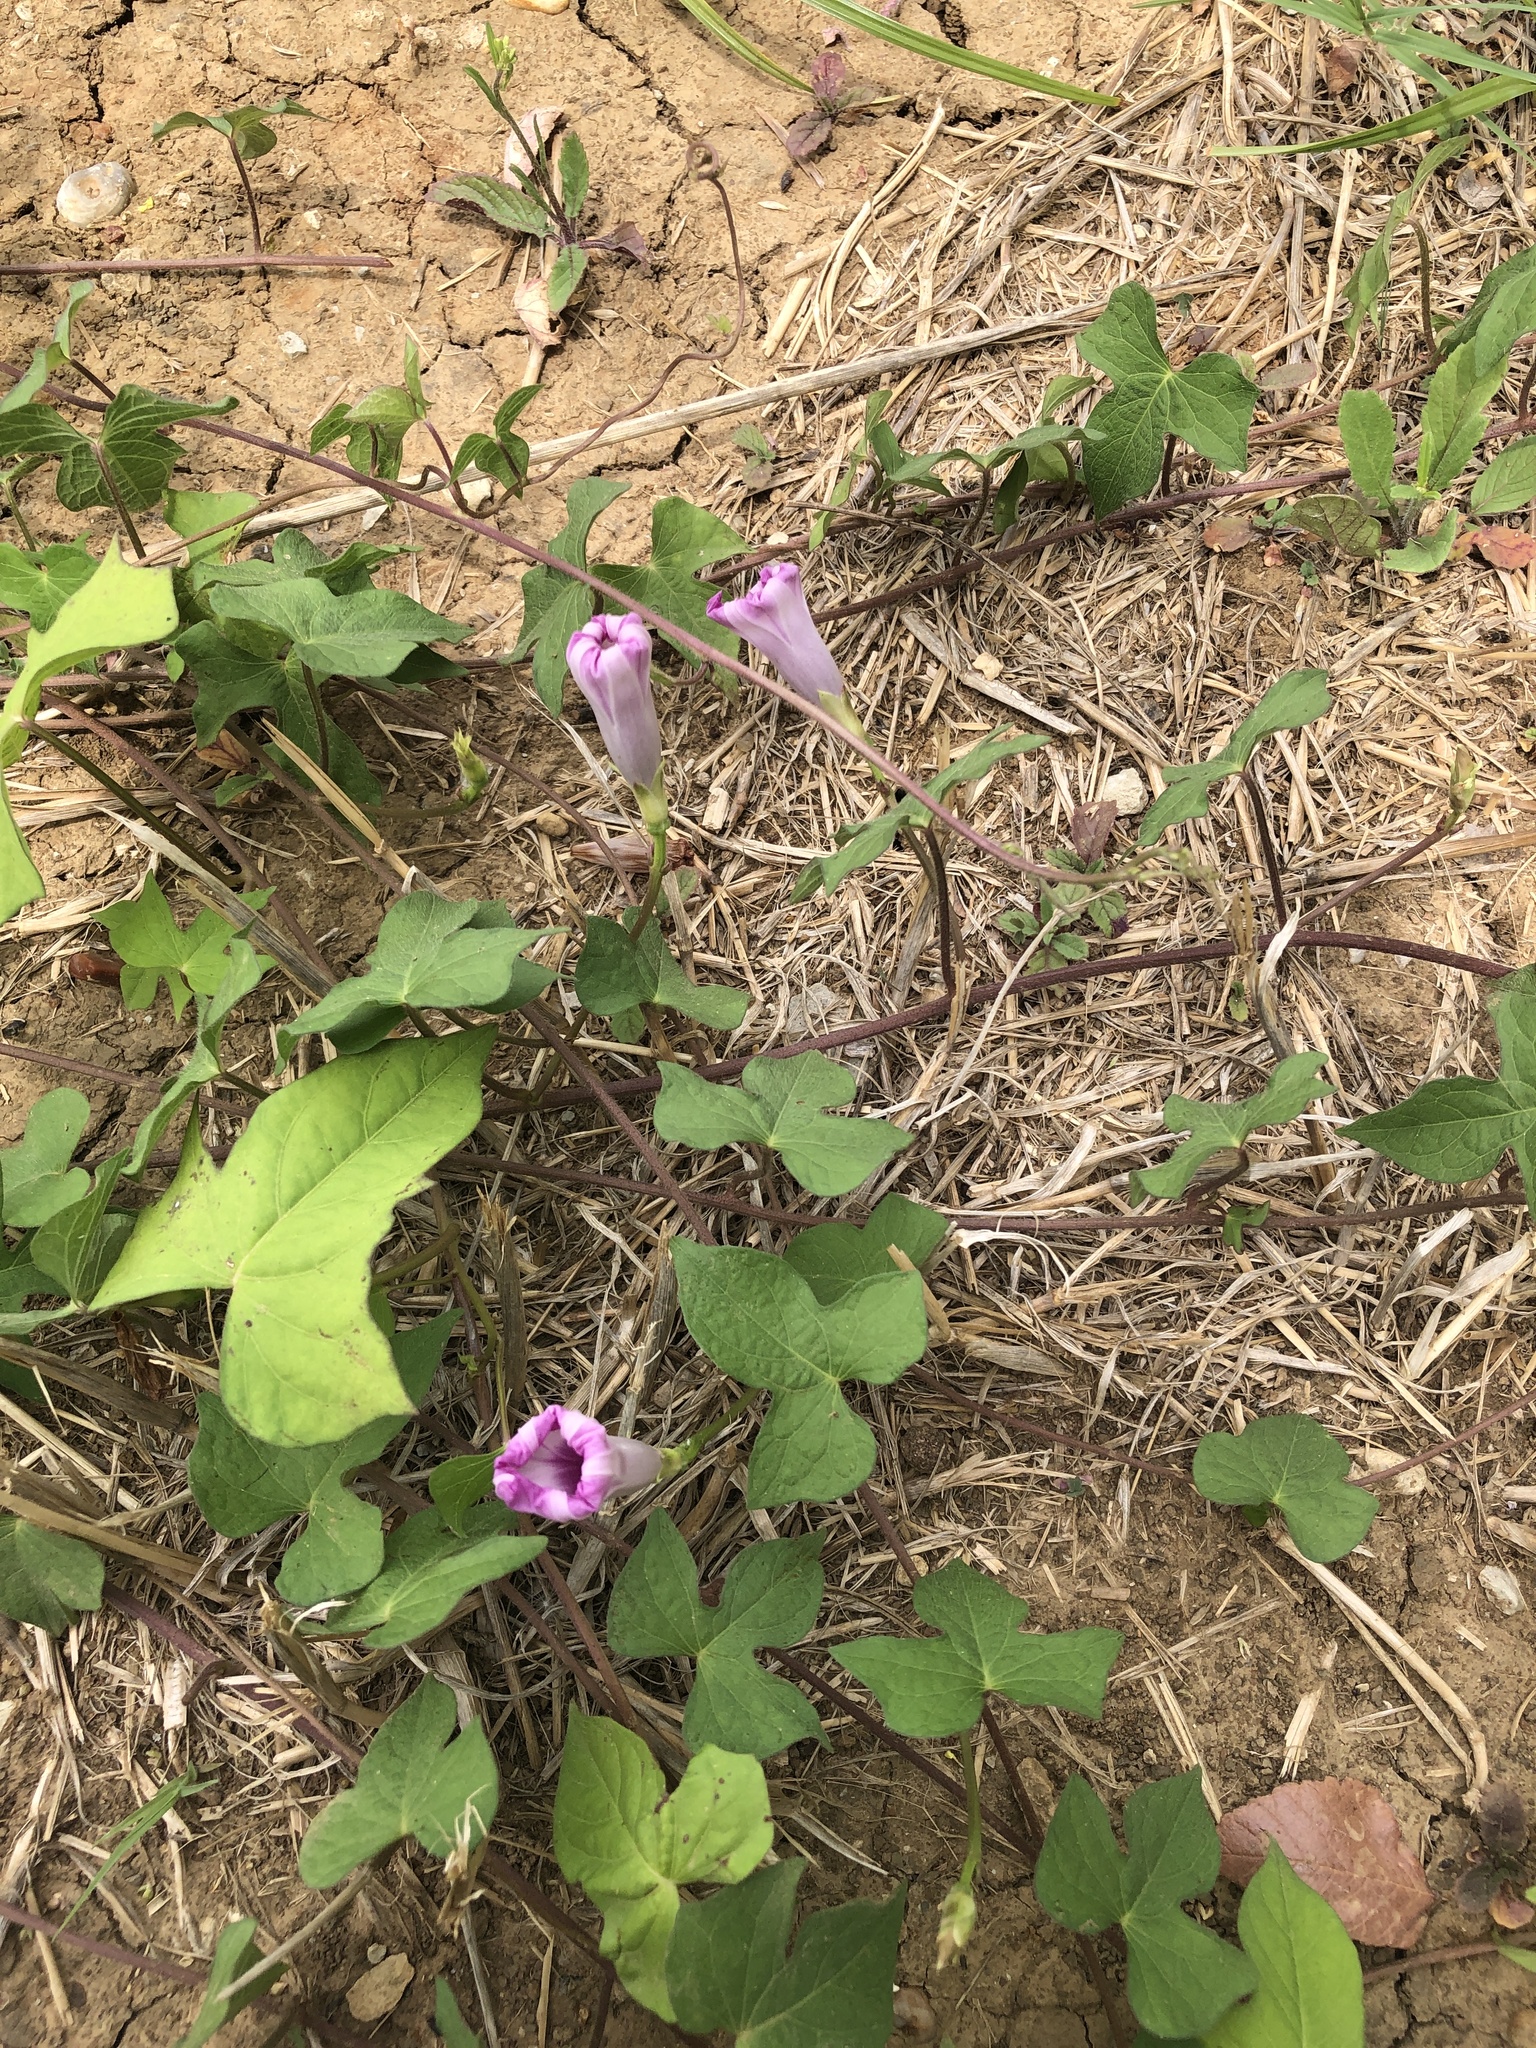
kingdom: Plantae
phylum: Tracheophyta
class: Magnoliopsida
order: Solanales
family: Convolvulaceae
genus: Ipomoea
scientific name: Ipomoea cordatotriloba
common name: Cotton morning glory
